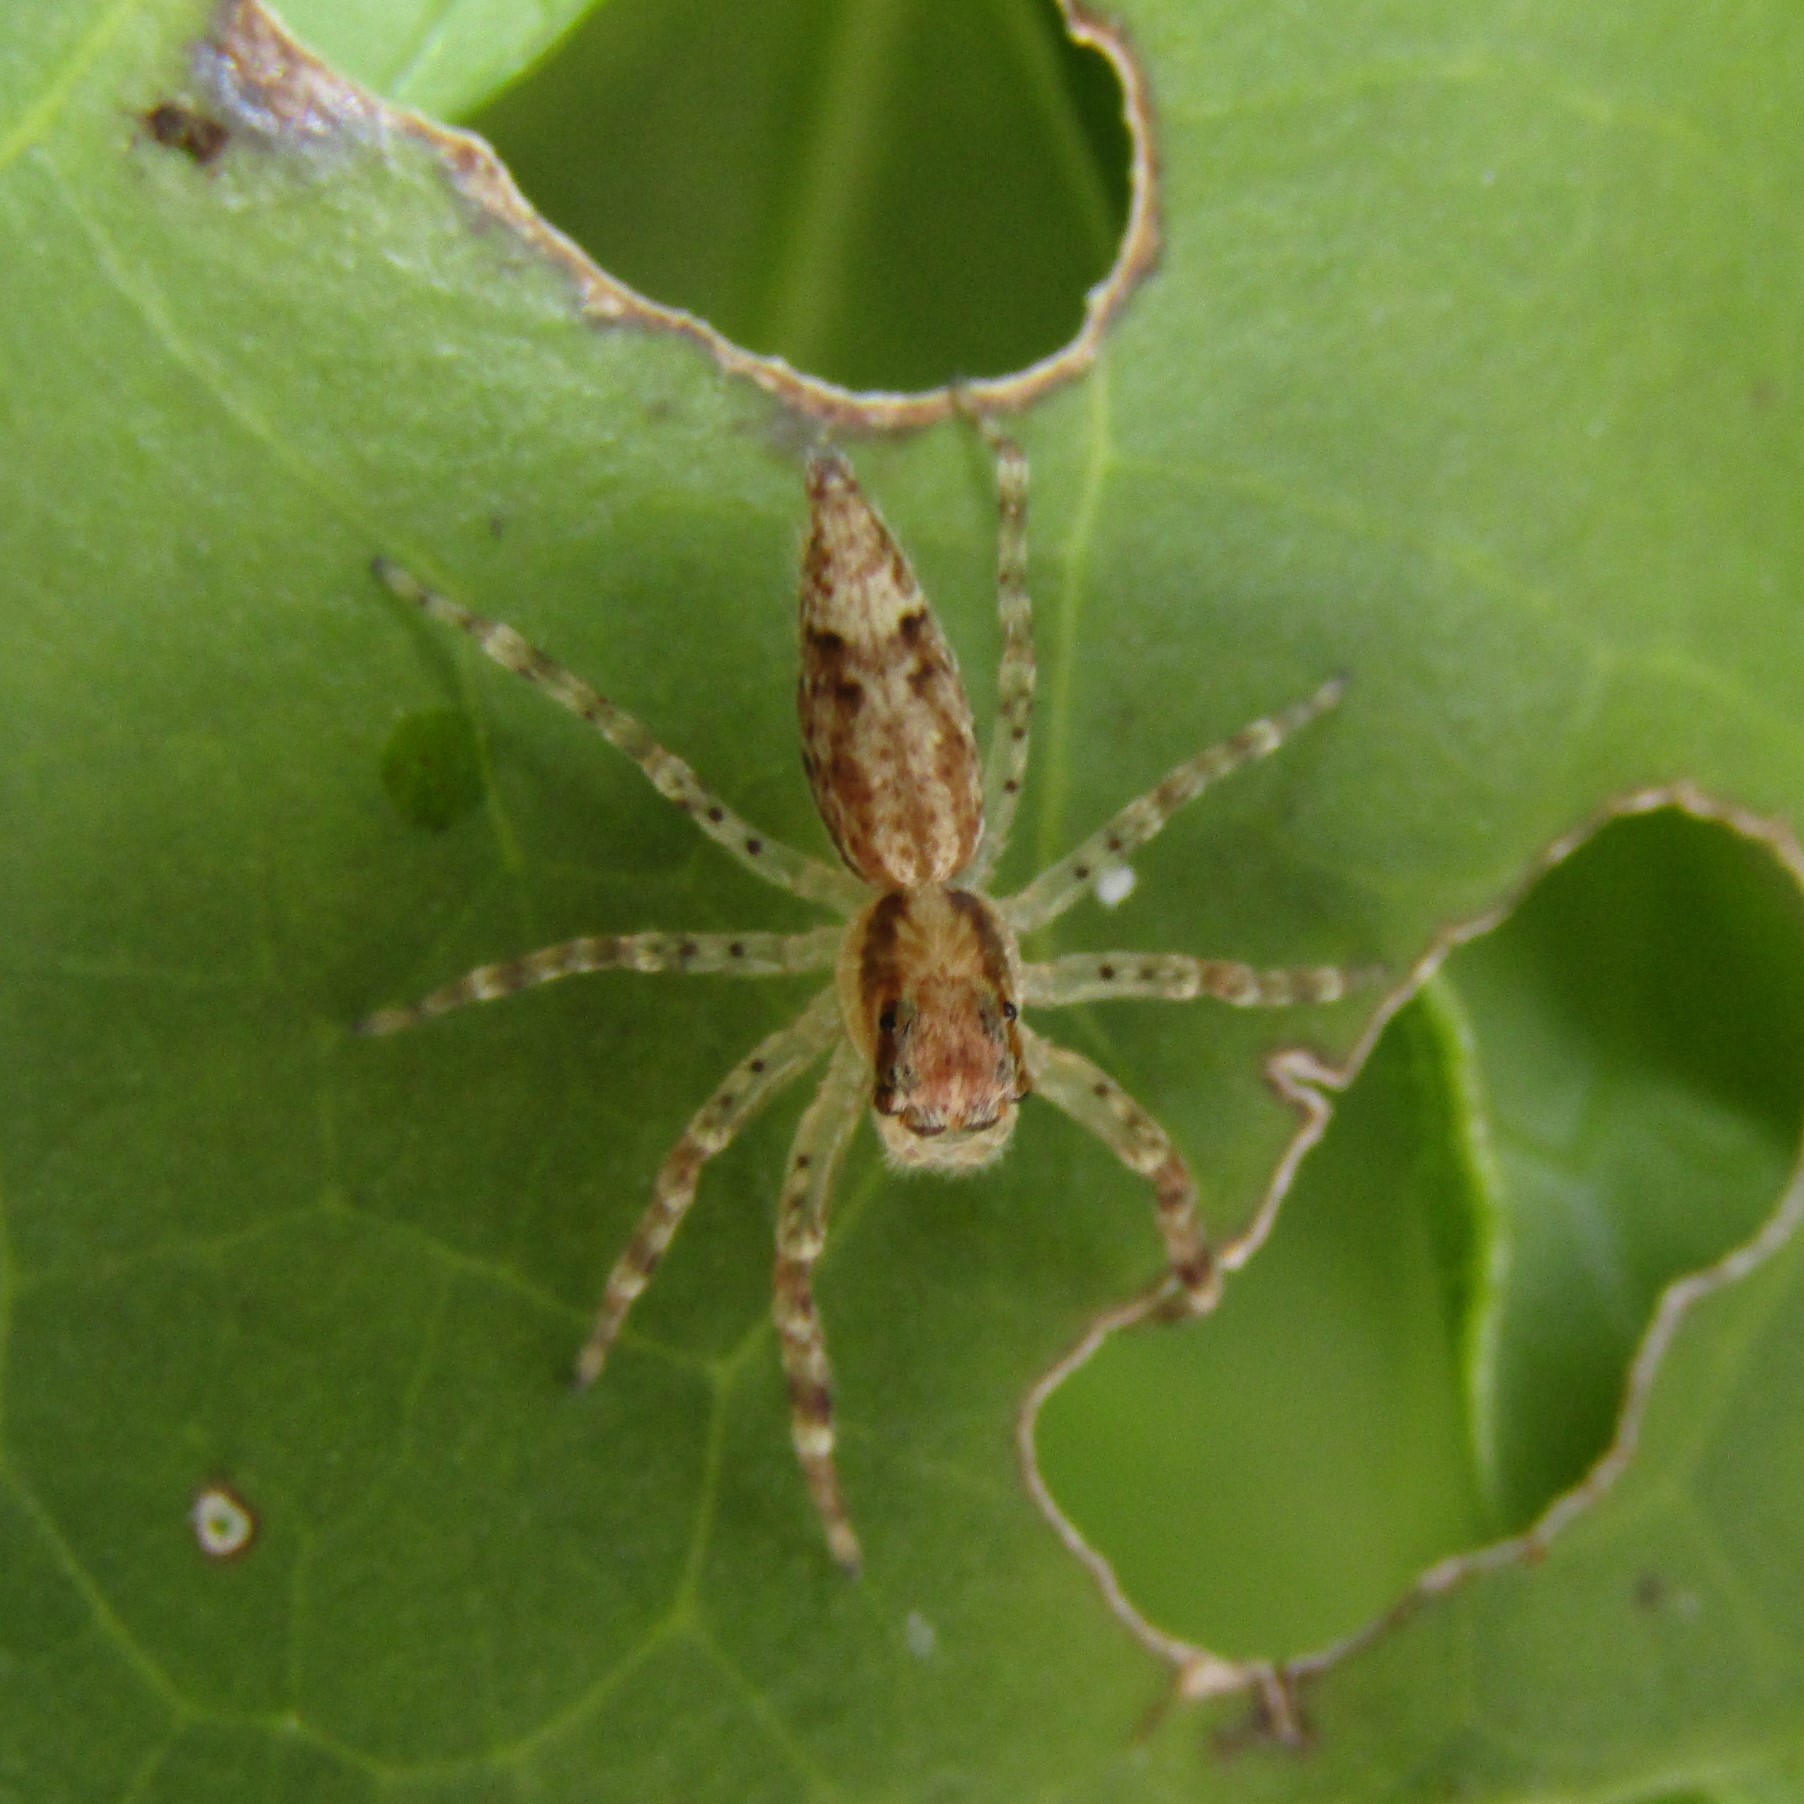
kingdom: Animalia
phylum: Arthropoda
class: Arachnida
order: Araneae
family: Salticidae
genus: Helpis
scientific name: Helpis minitabunda
